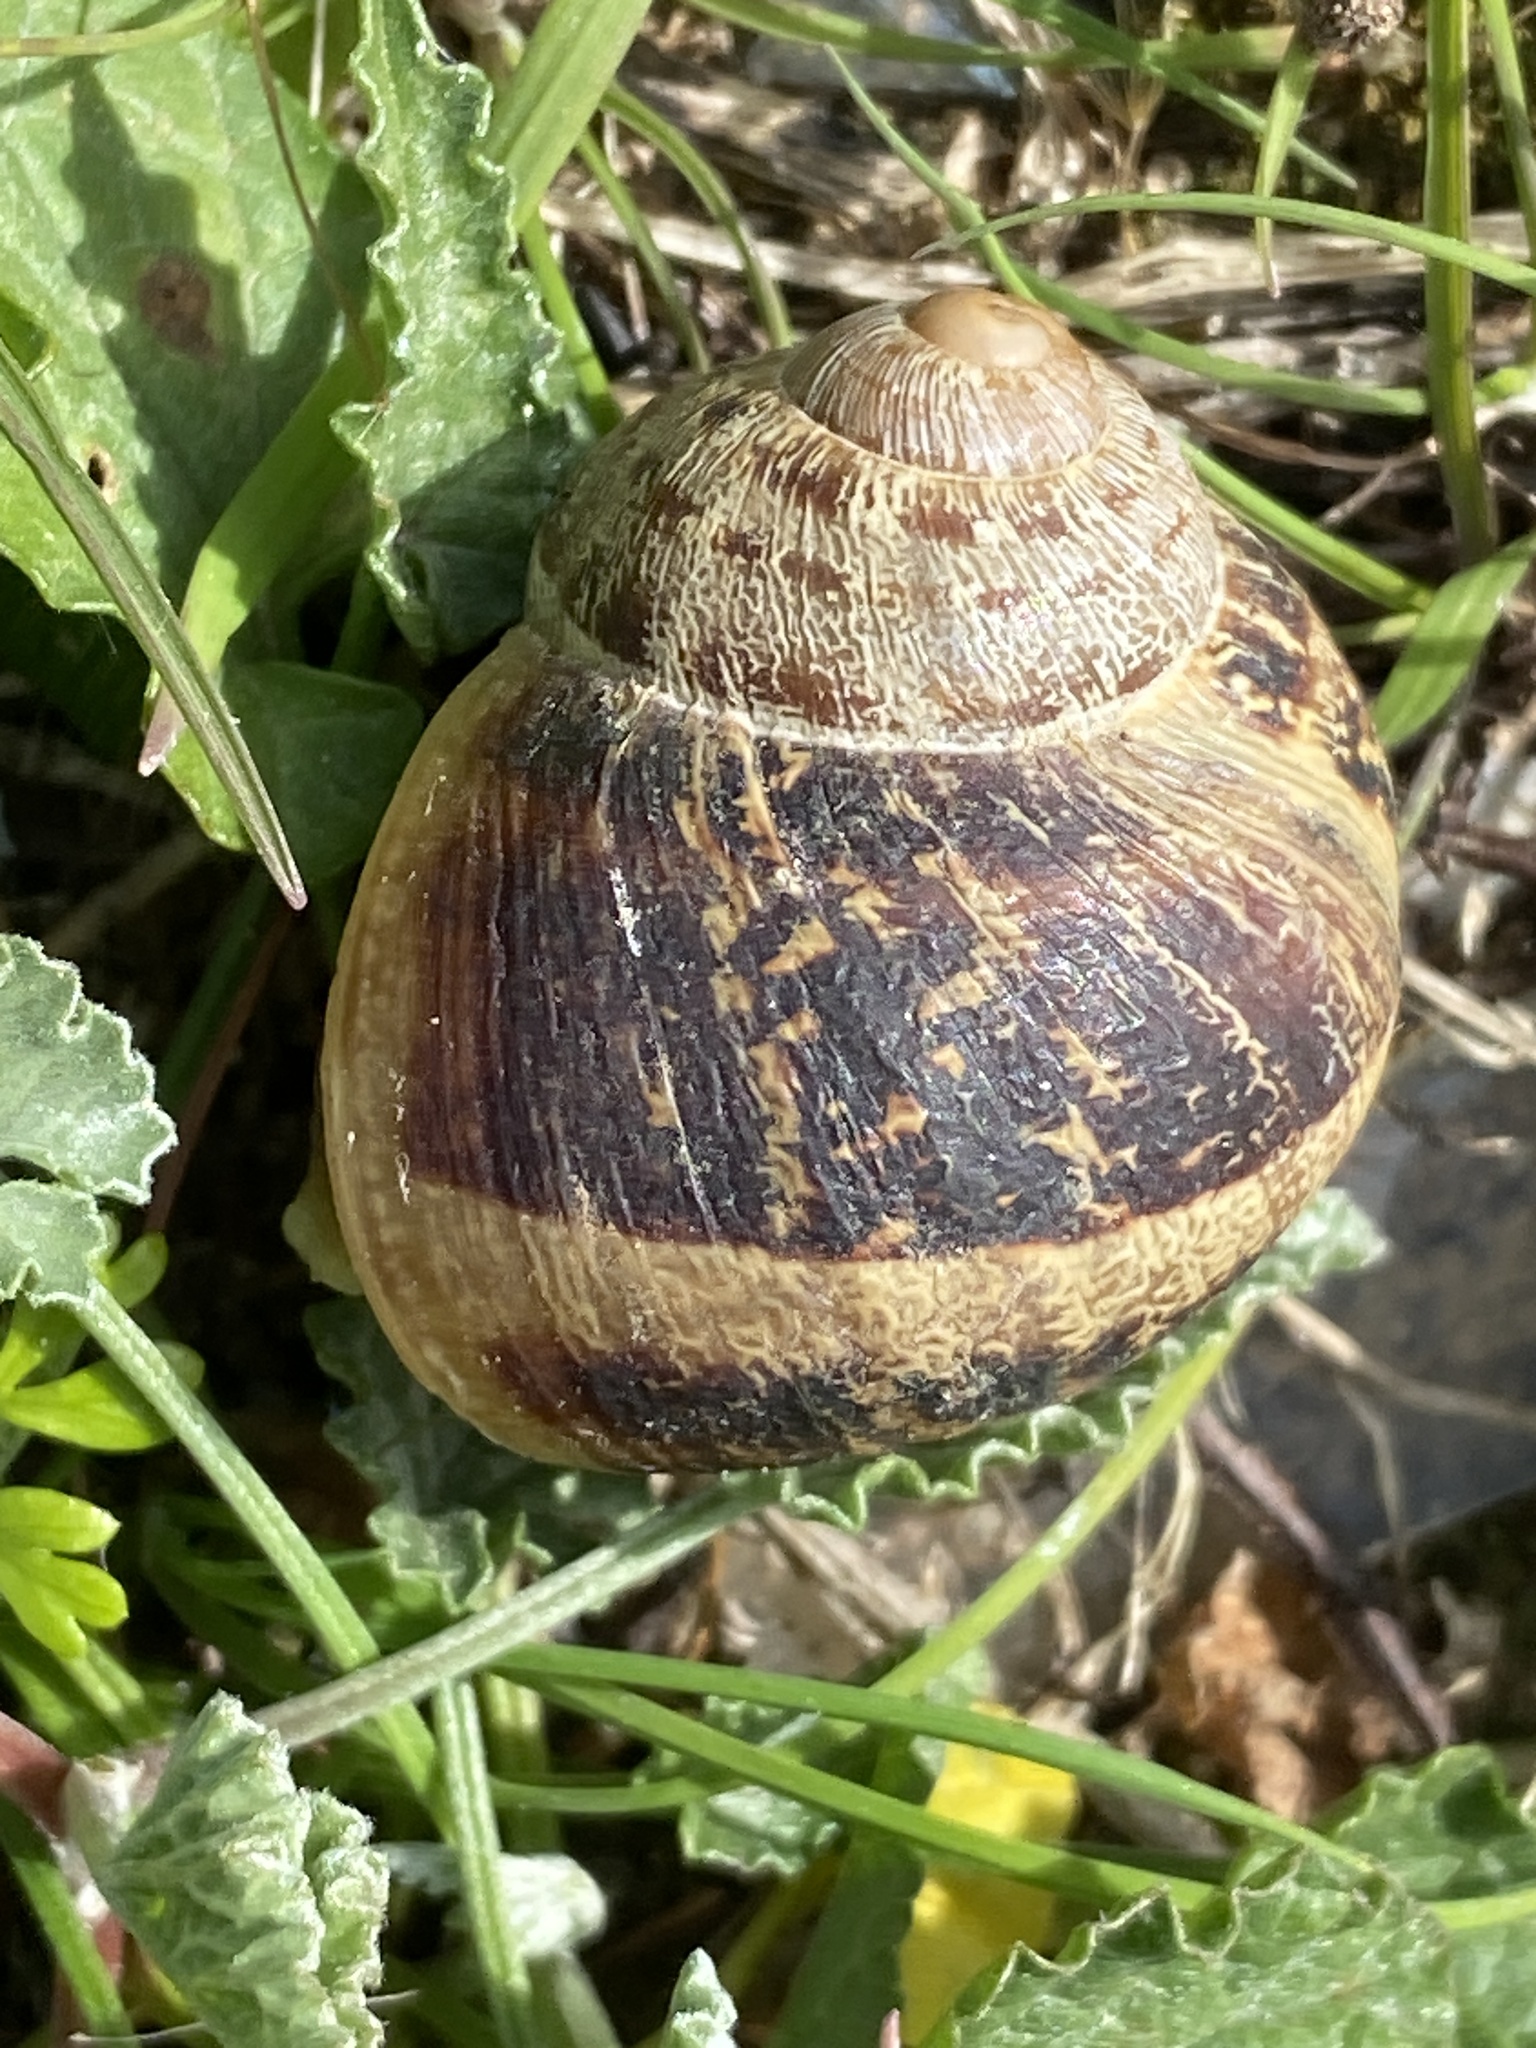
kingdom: Animalia
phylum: Mollusca
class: Gastropoda
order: Stylommatophora
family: Helicidae
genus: Cornu
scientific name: Cornu aspersum
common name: Brown garden snail
